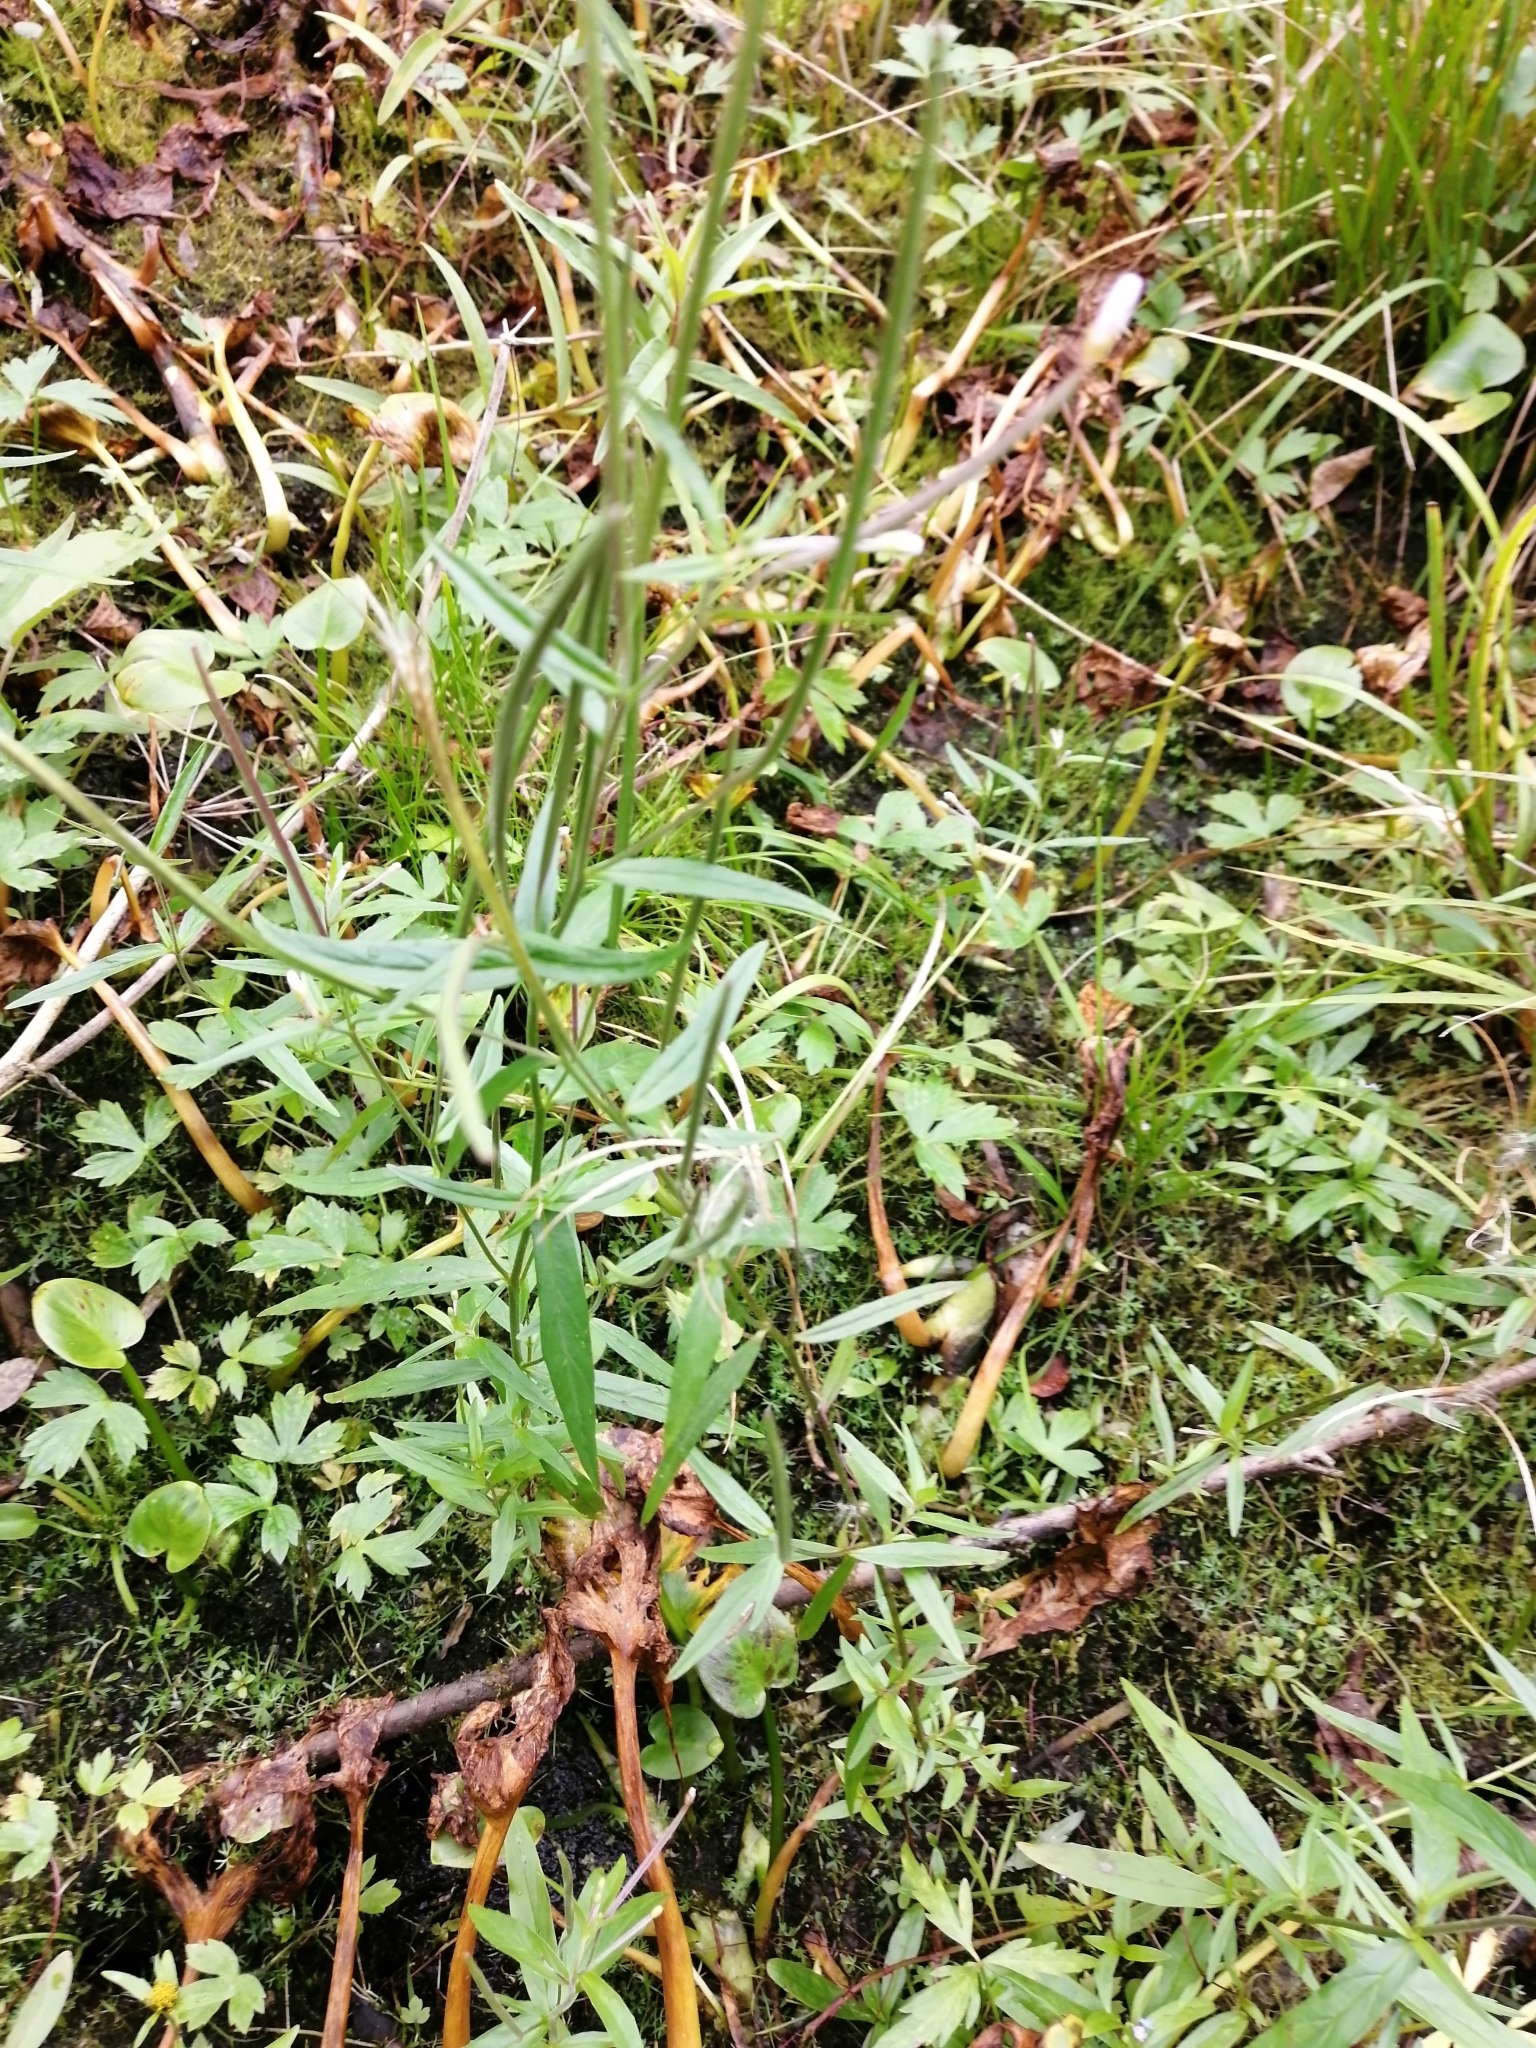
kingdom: Plantae
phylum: Tracheophyta
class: Magnoliopsida
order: Myrtales
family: Onagraceae
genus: Epilobium
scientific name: Epilobium palustre
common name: Marsh willowherb
